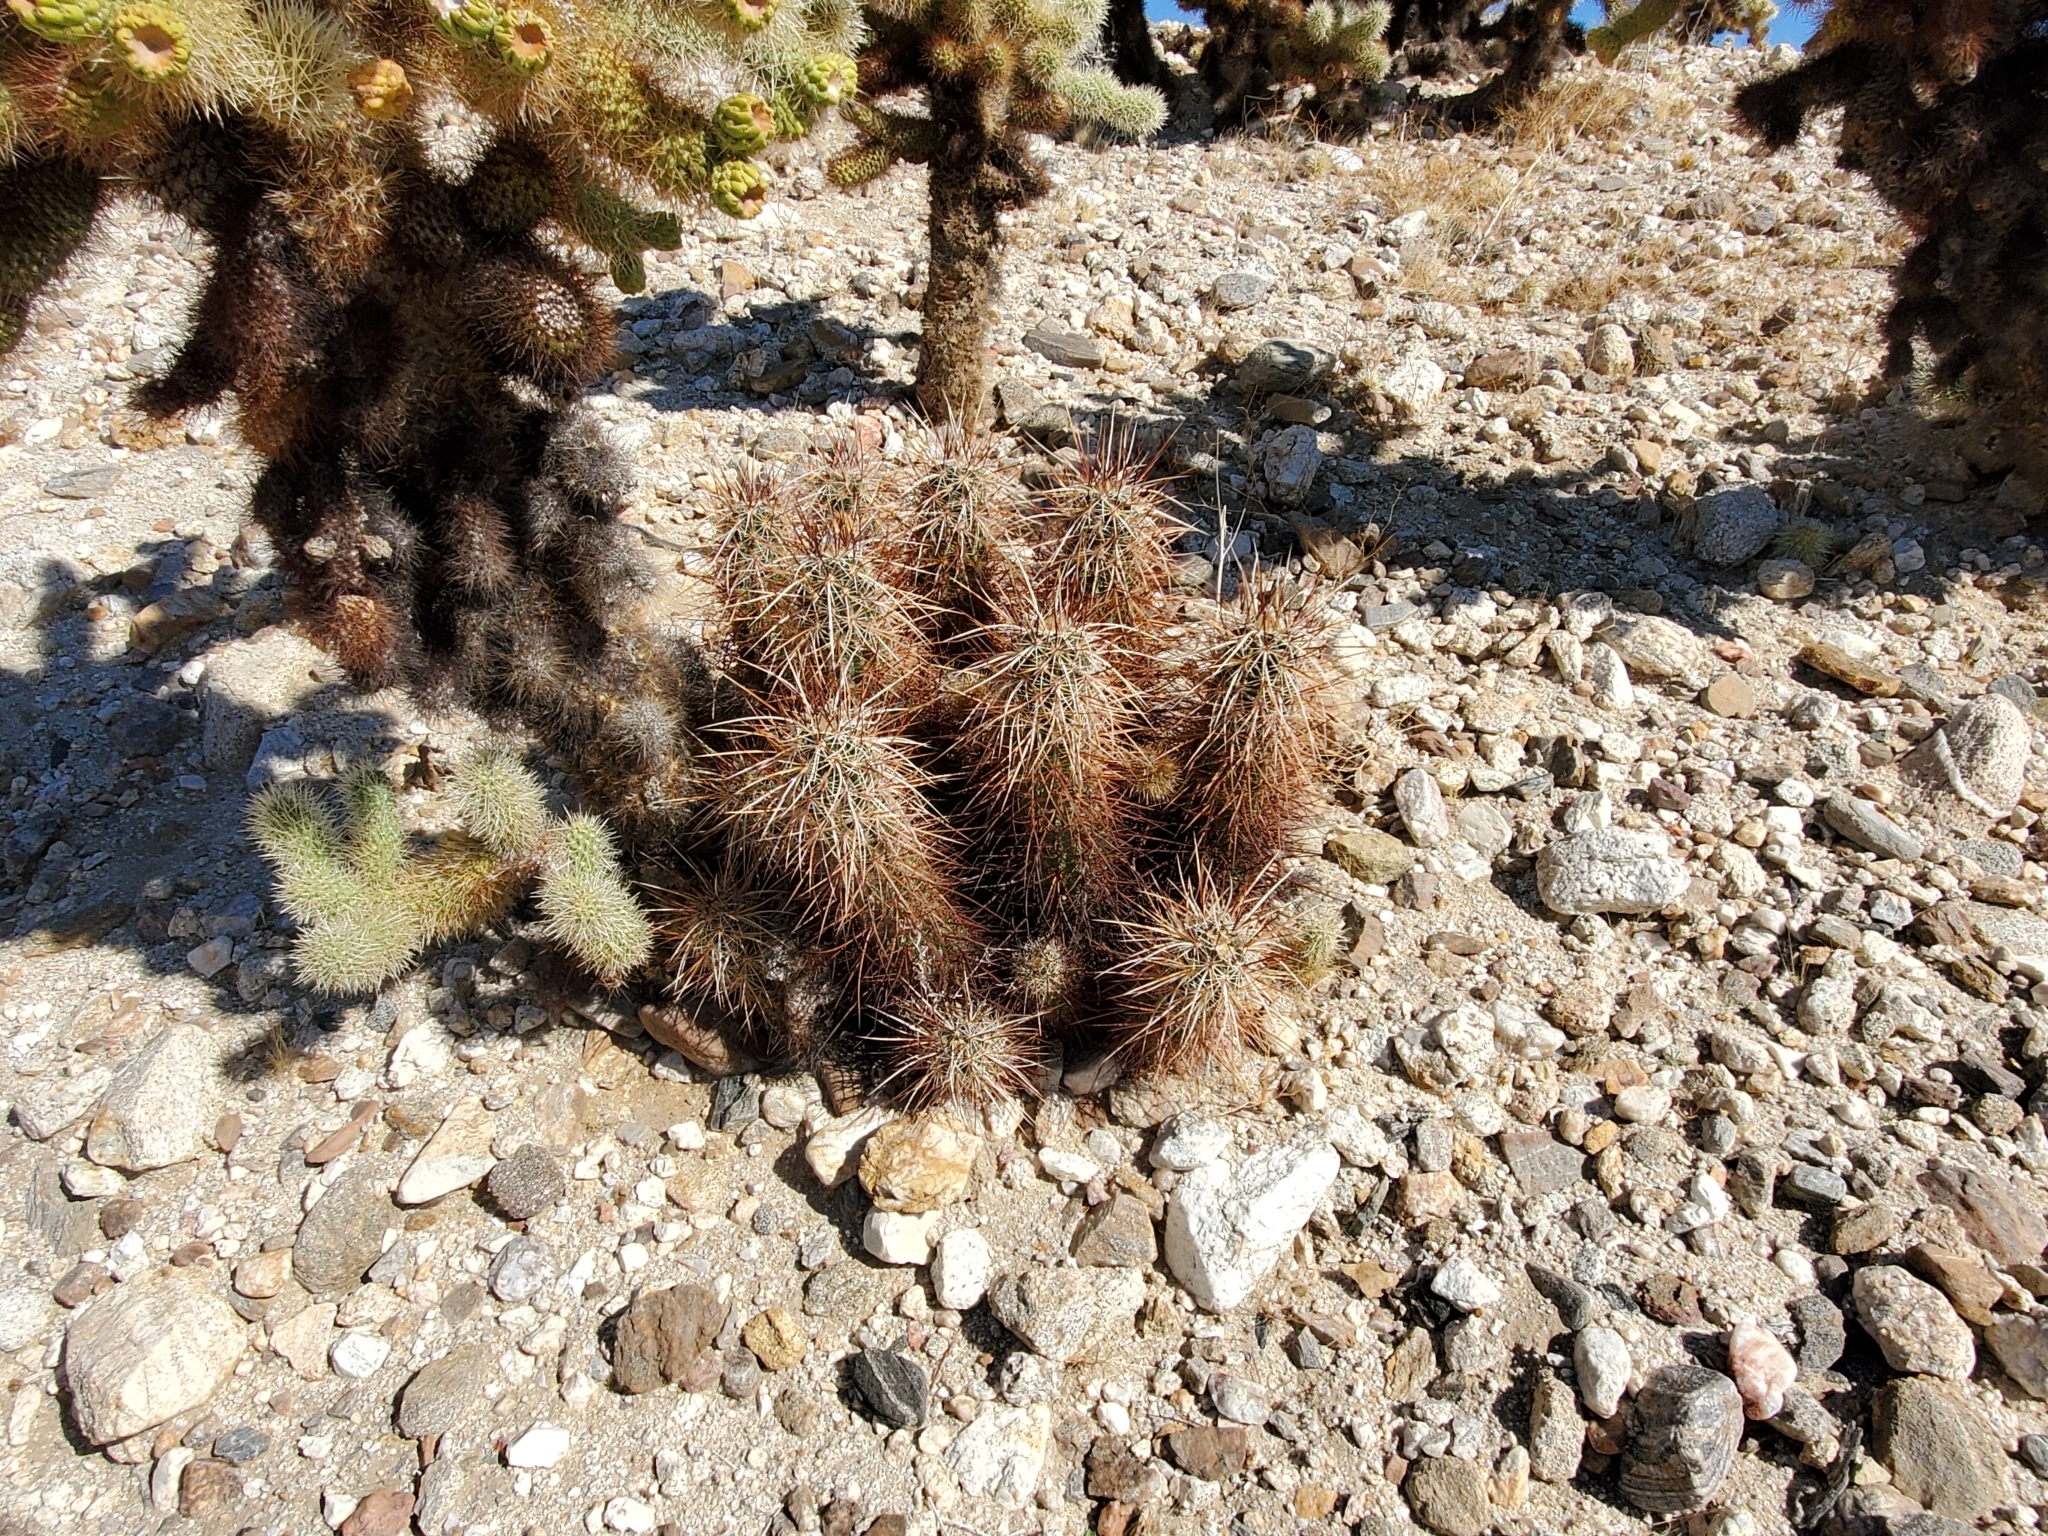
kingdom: Plantae
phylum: Tracheophyta
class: Magnoliopsida
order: Caryophyllales
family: Cactaceae
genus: Echinocereus
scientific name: Echinocereus engelmannii
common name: Engelmann's hedgehog cactus
